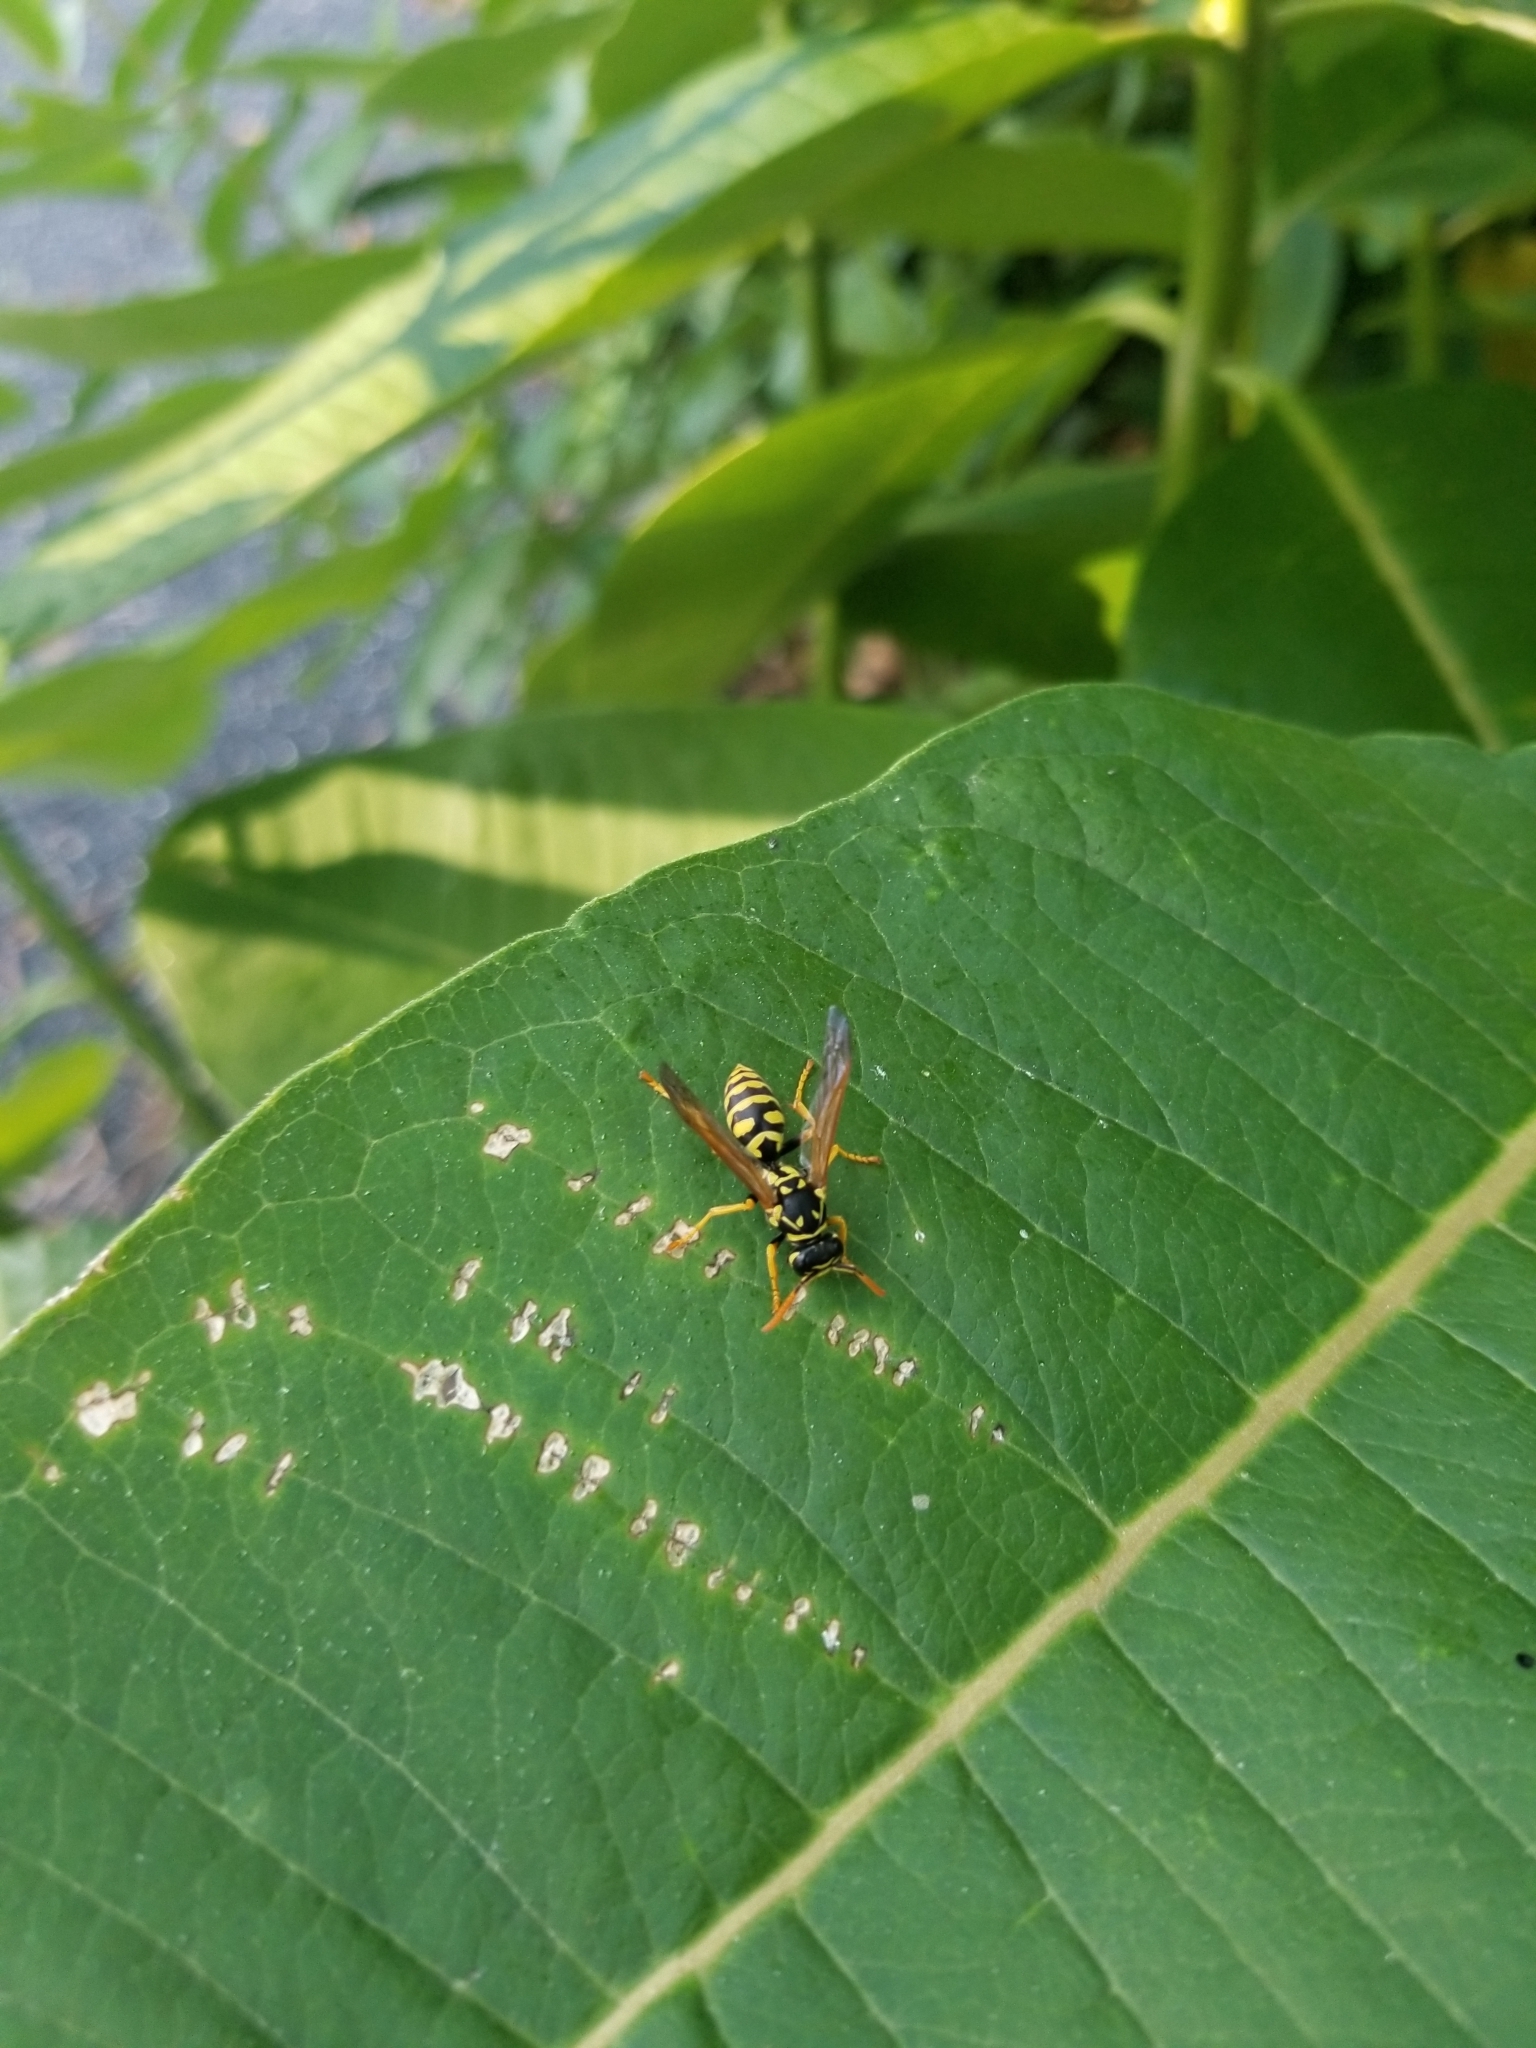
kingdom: Animalia
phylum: Arthropoda
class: Insecta
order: Hymenoptera
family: Eumenidae
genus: Polistes
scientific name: Polistes dominula
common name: Paper wasp
